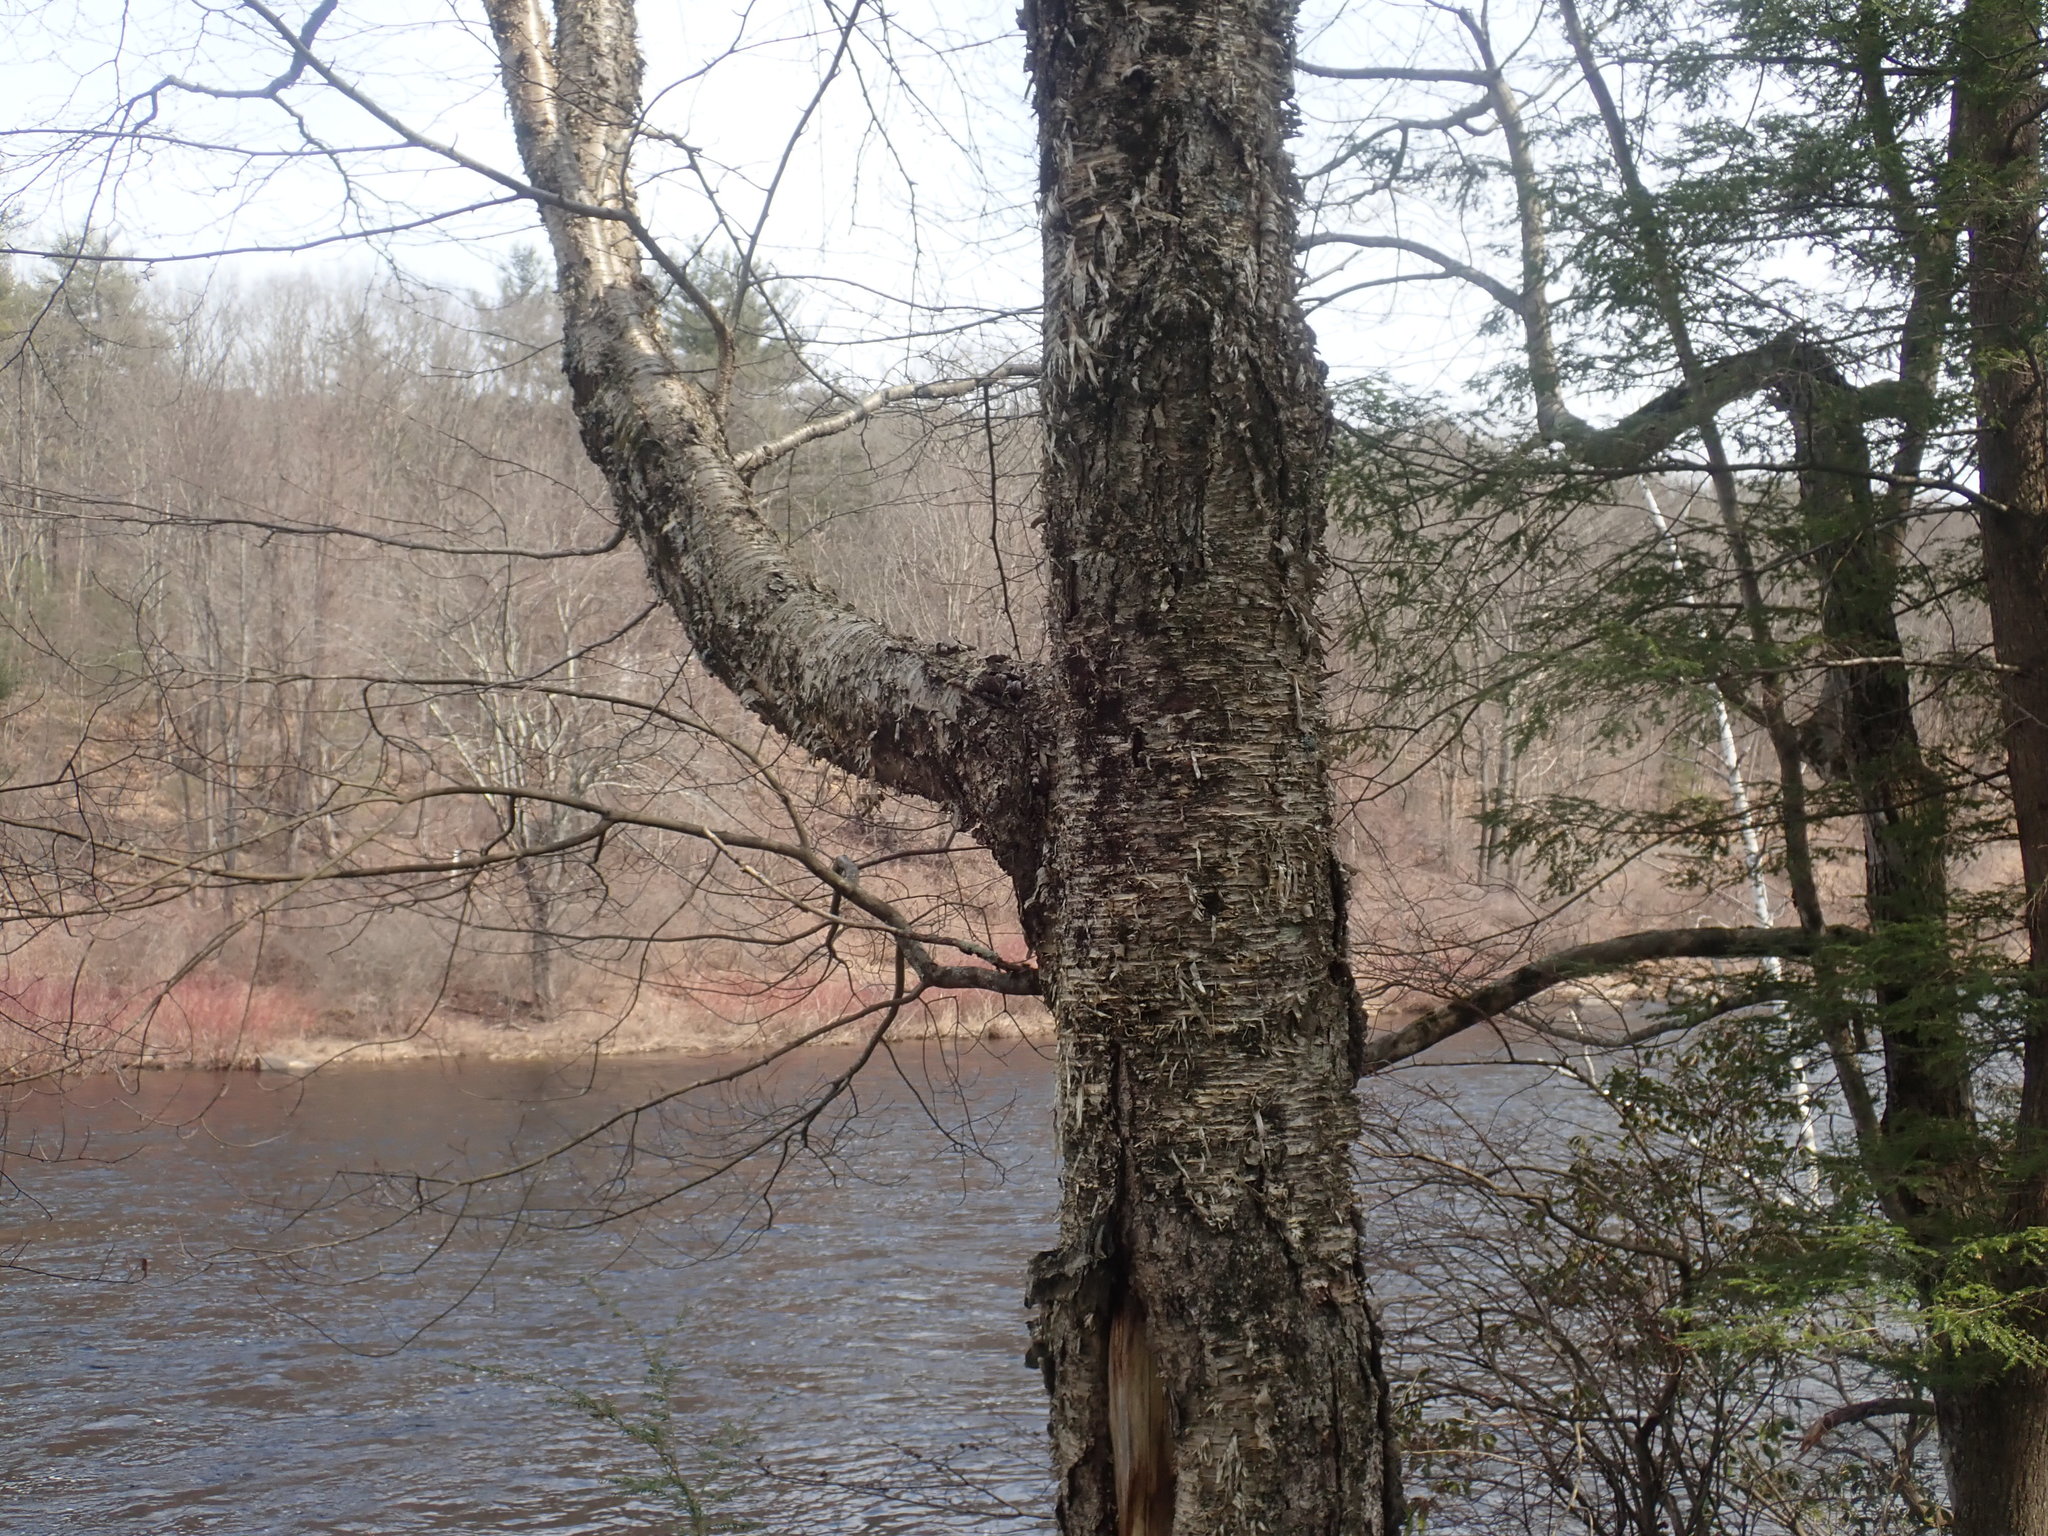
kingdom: Plantae
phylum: Tracheophyta
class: Magnoliopsida
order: Fagales
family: Betulaceae
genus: Betula
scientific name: Betula alleghaniensis
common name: Yellow birch
